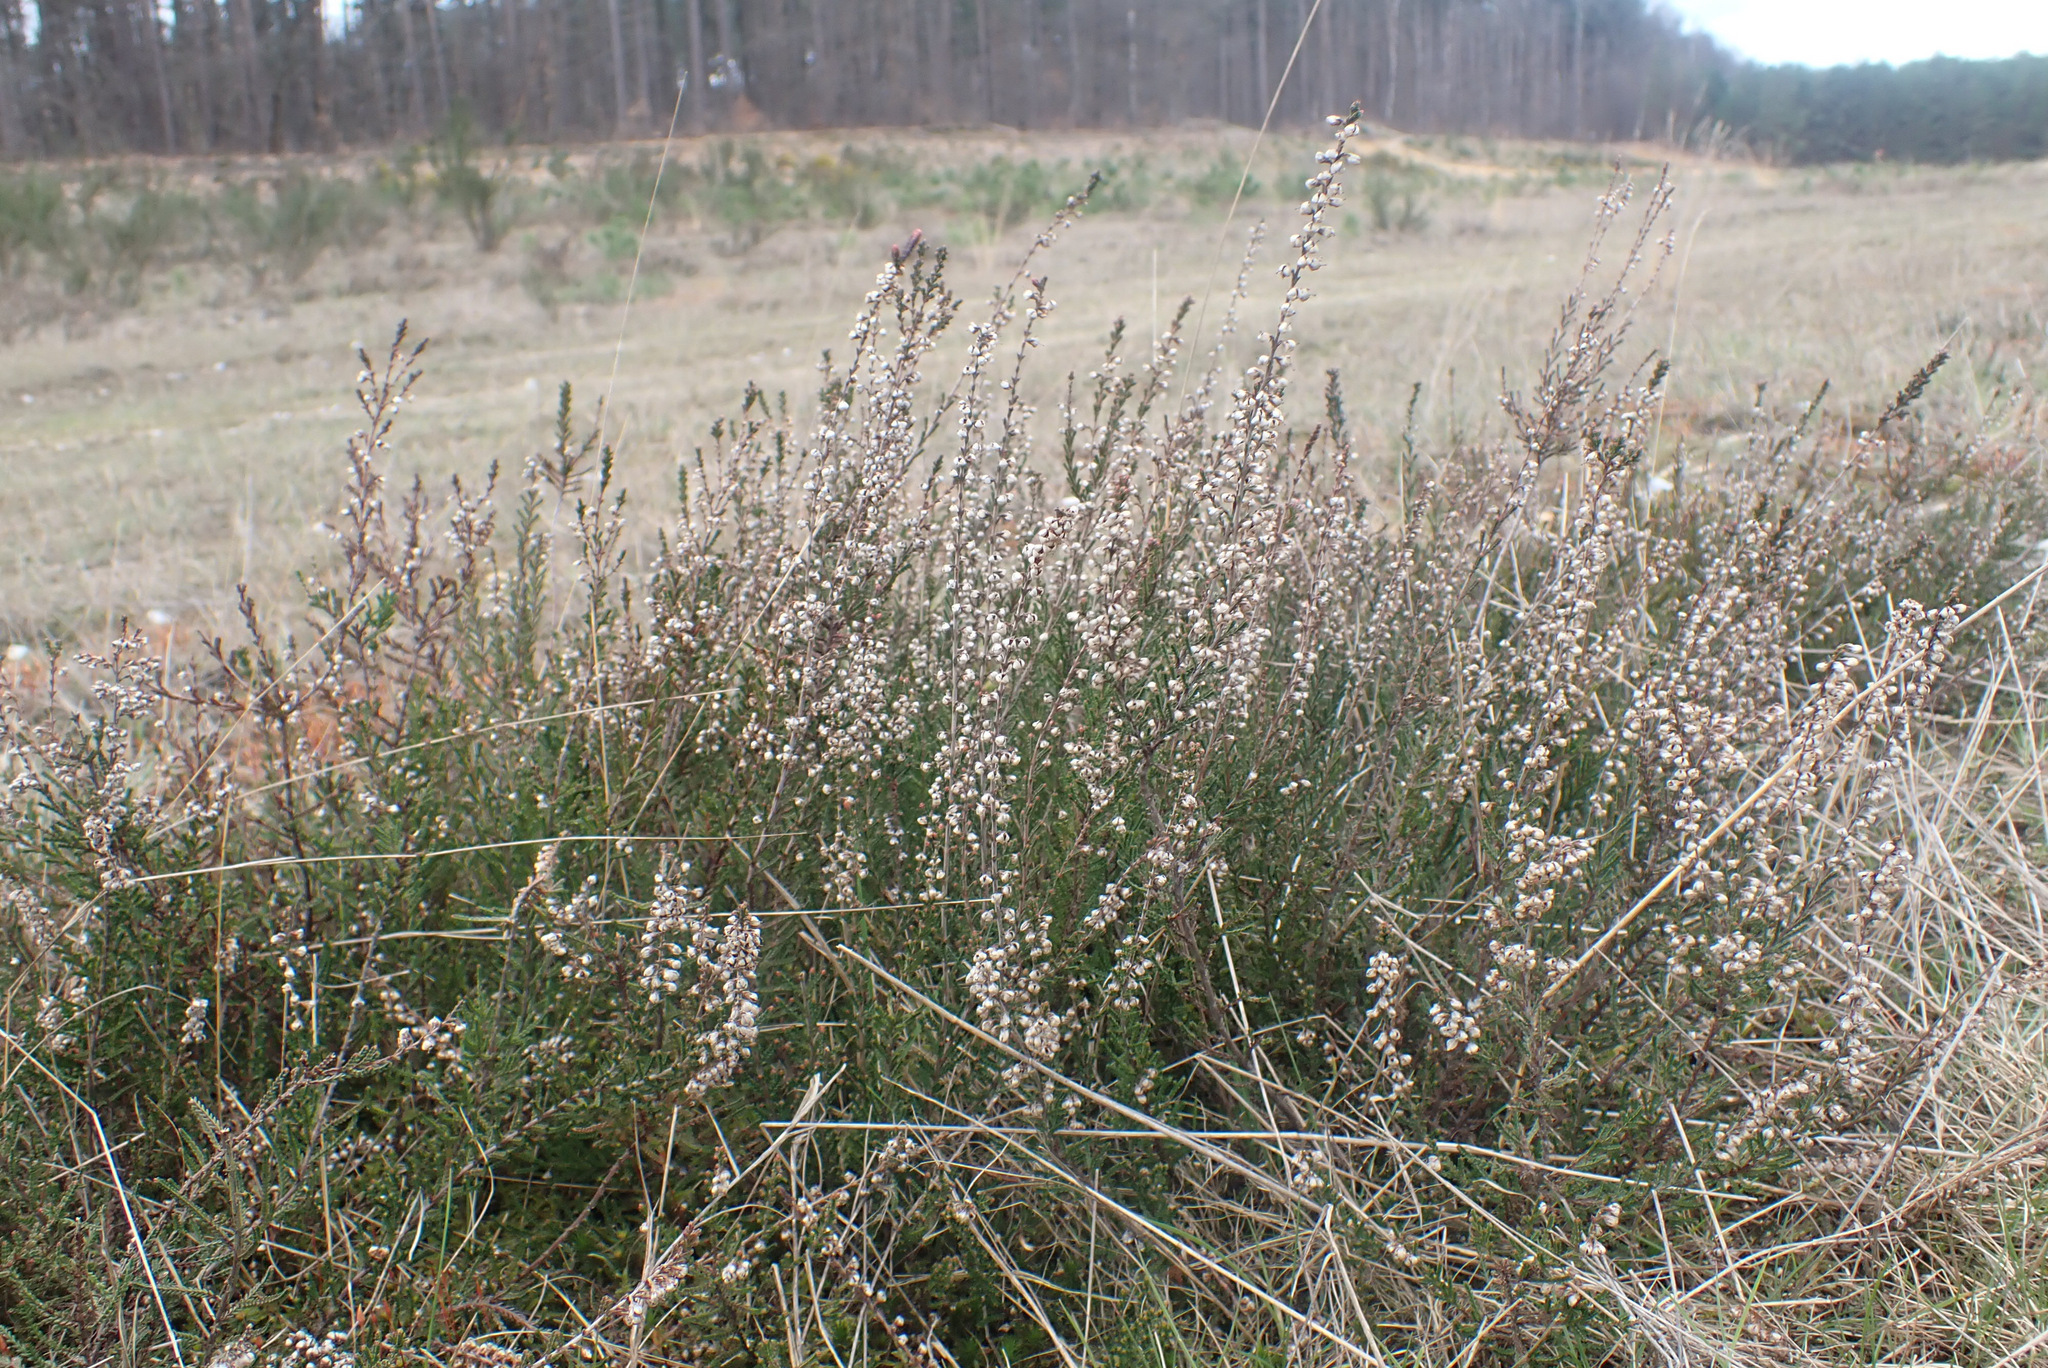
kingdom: Plantae
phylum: Tracheophyta
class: Magnoliopsida
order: Ericales
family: Ericaceae
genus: Calluna
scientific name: Calluna vulgaris
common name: Heather
